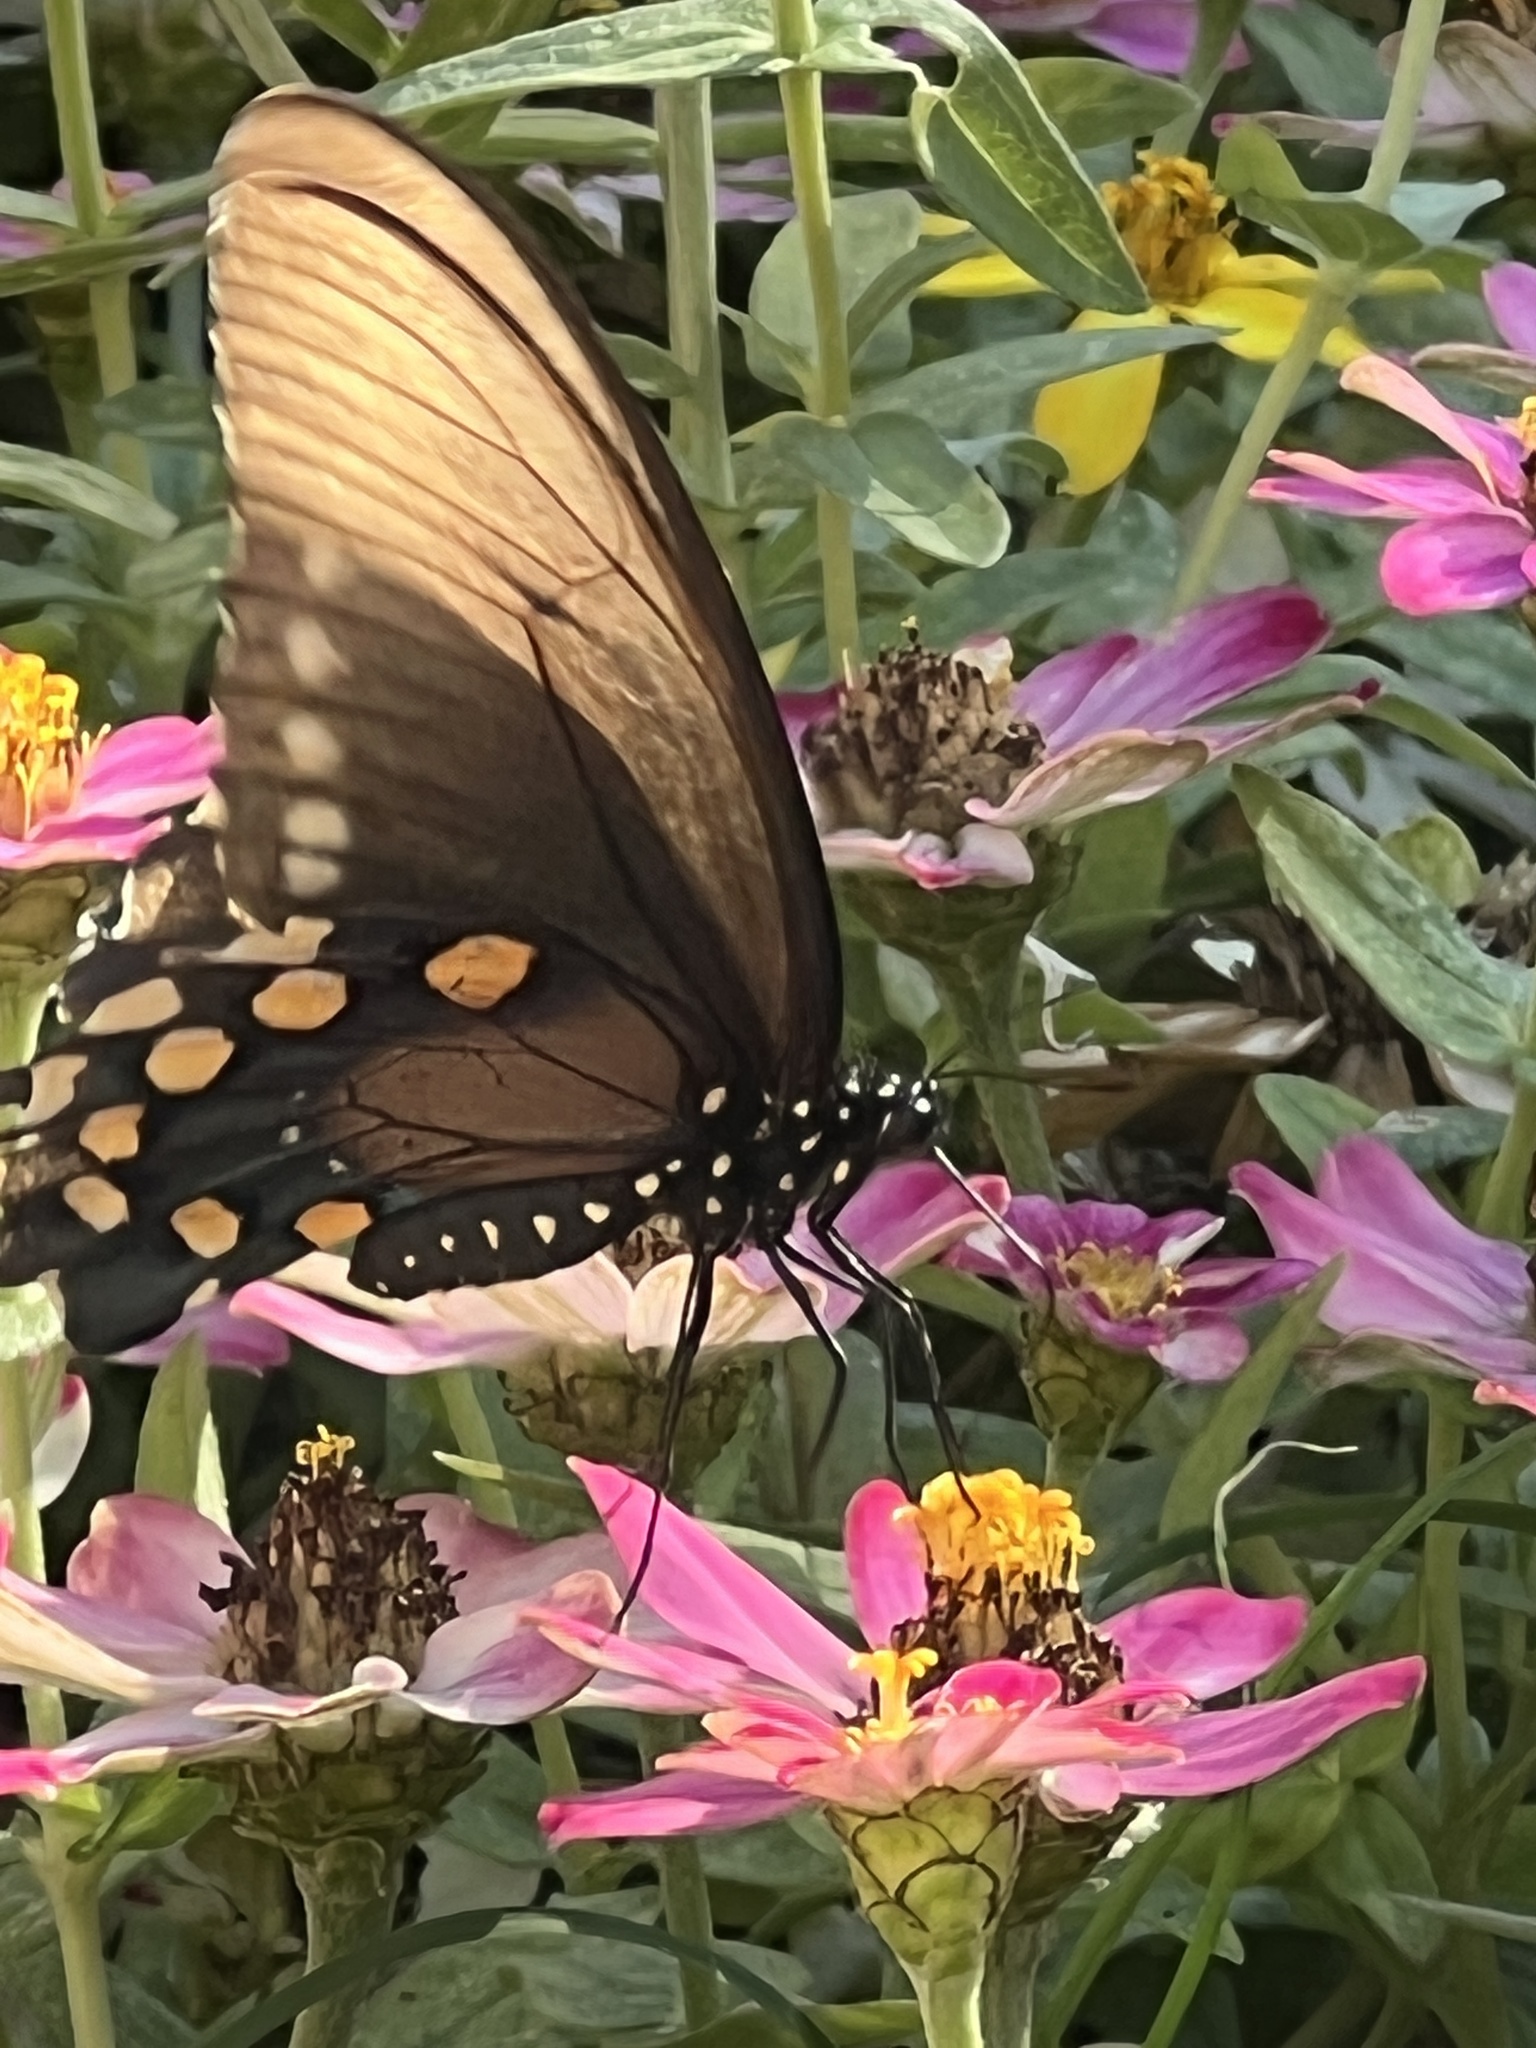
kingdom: Animalia
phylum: Arthropoda
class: Insecta
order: Lepidoptera
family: Papilionidae
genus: Battus
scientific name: Battus philenor
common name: Pipevine swallowtail
